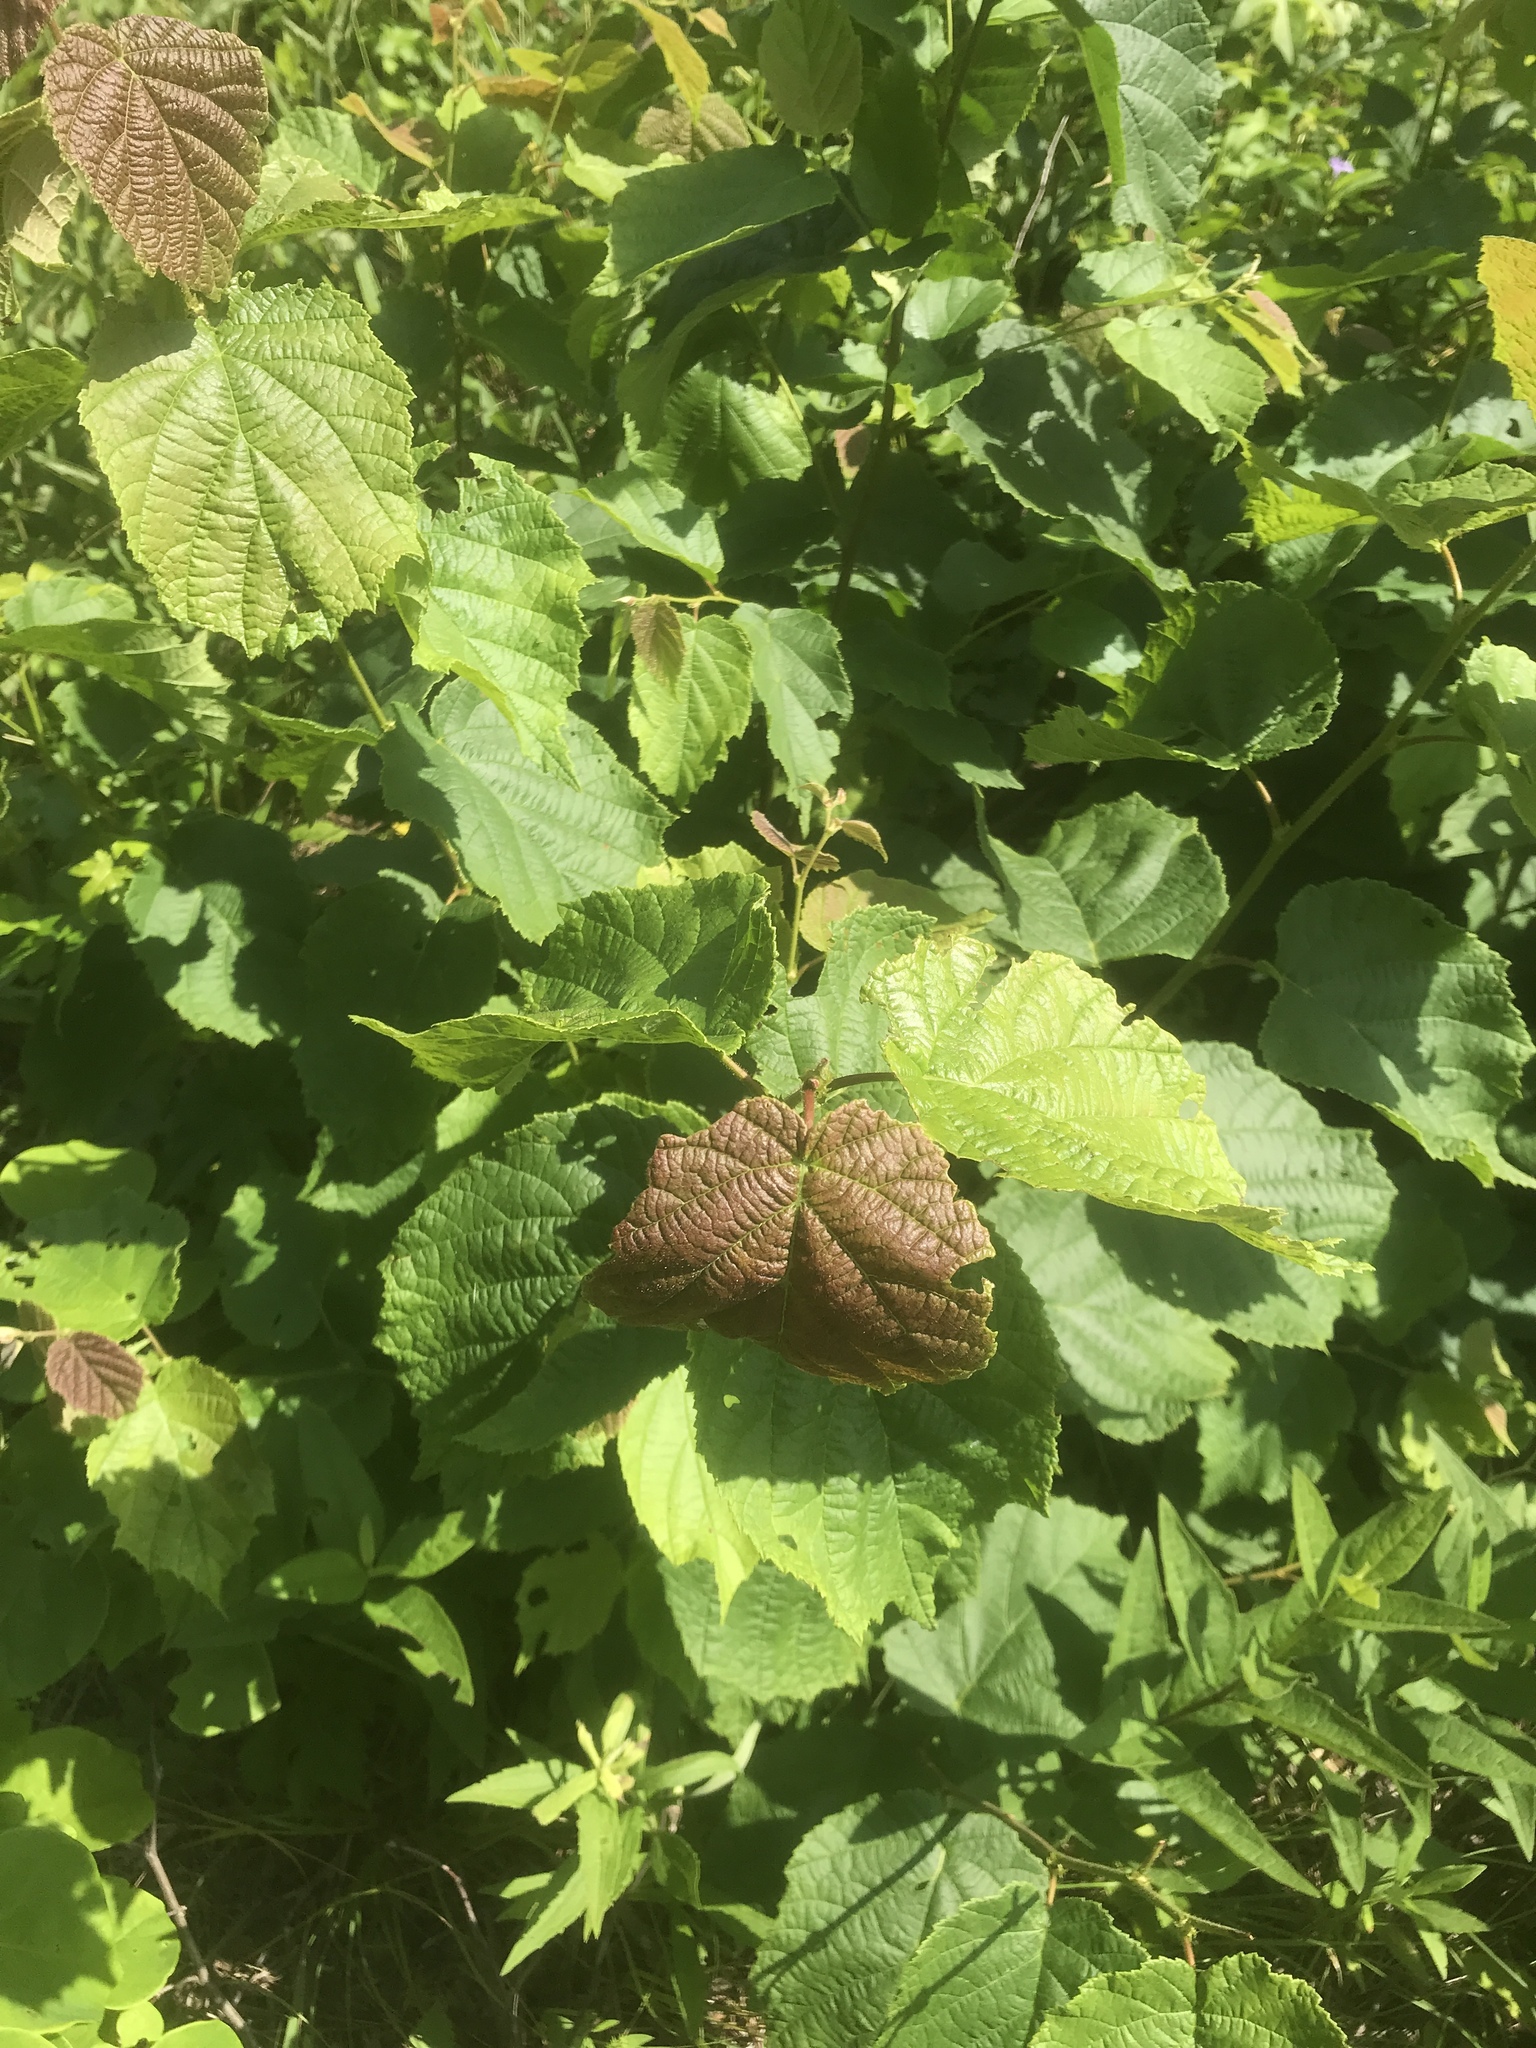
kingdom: Plantae
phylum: Tracheophyta
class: Magnoliopsida
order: Fagales
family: Betulaceae
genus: Corylus
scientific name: Corylus americana
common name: American hazel
